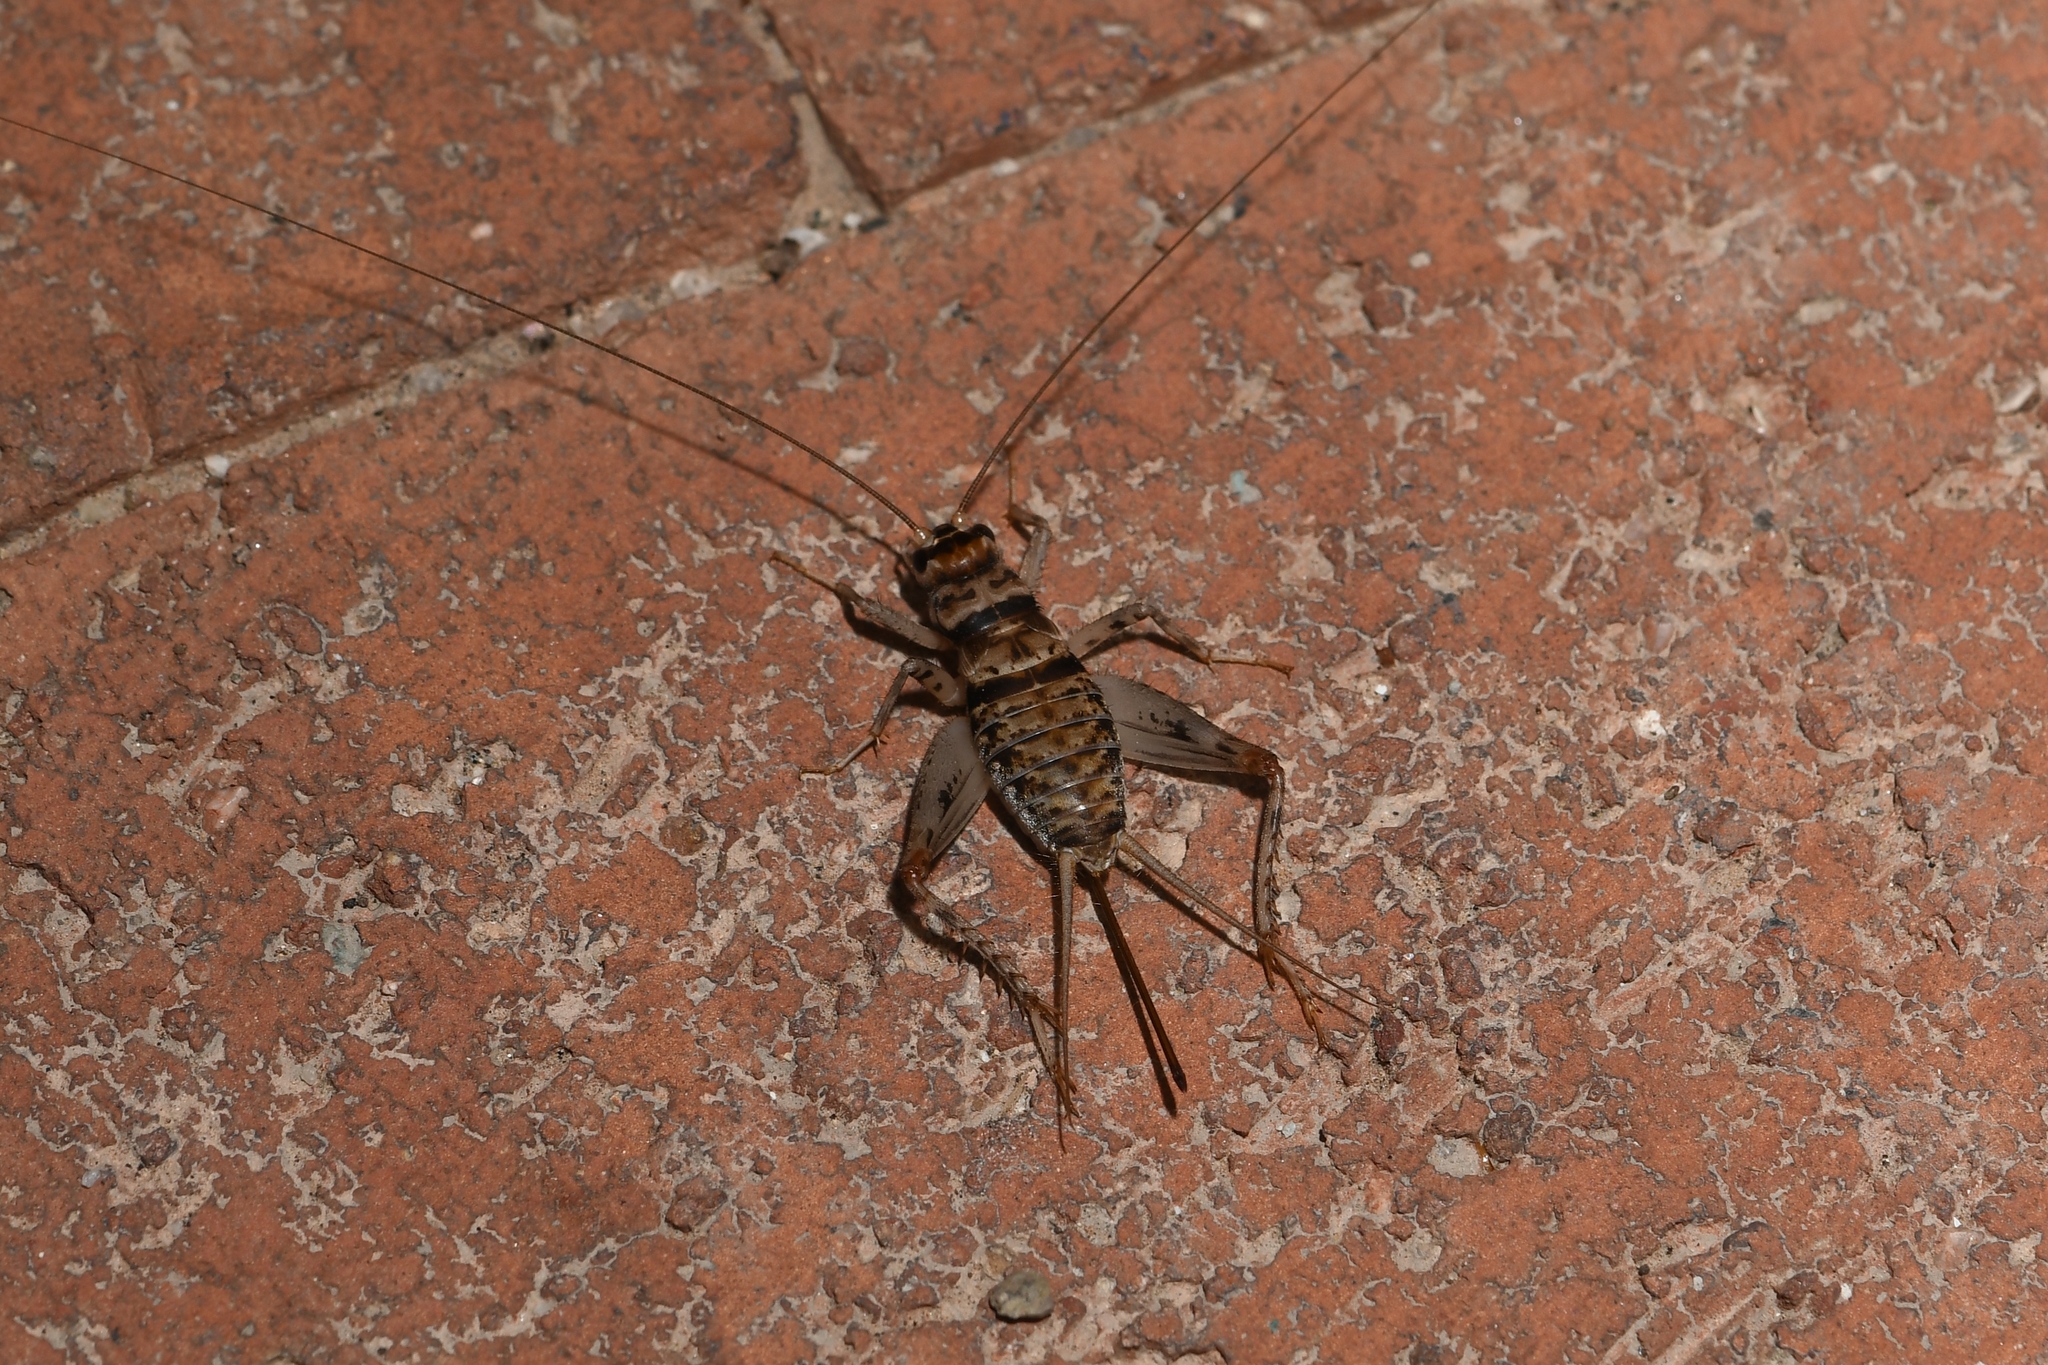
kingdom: Animalia
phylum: Arthropoda
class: Insecta
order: Orthoptera
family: Gryllidae
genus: Gryllodes
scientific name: Gryllodes sigillatus
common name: Tropical house cricket
